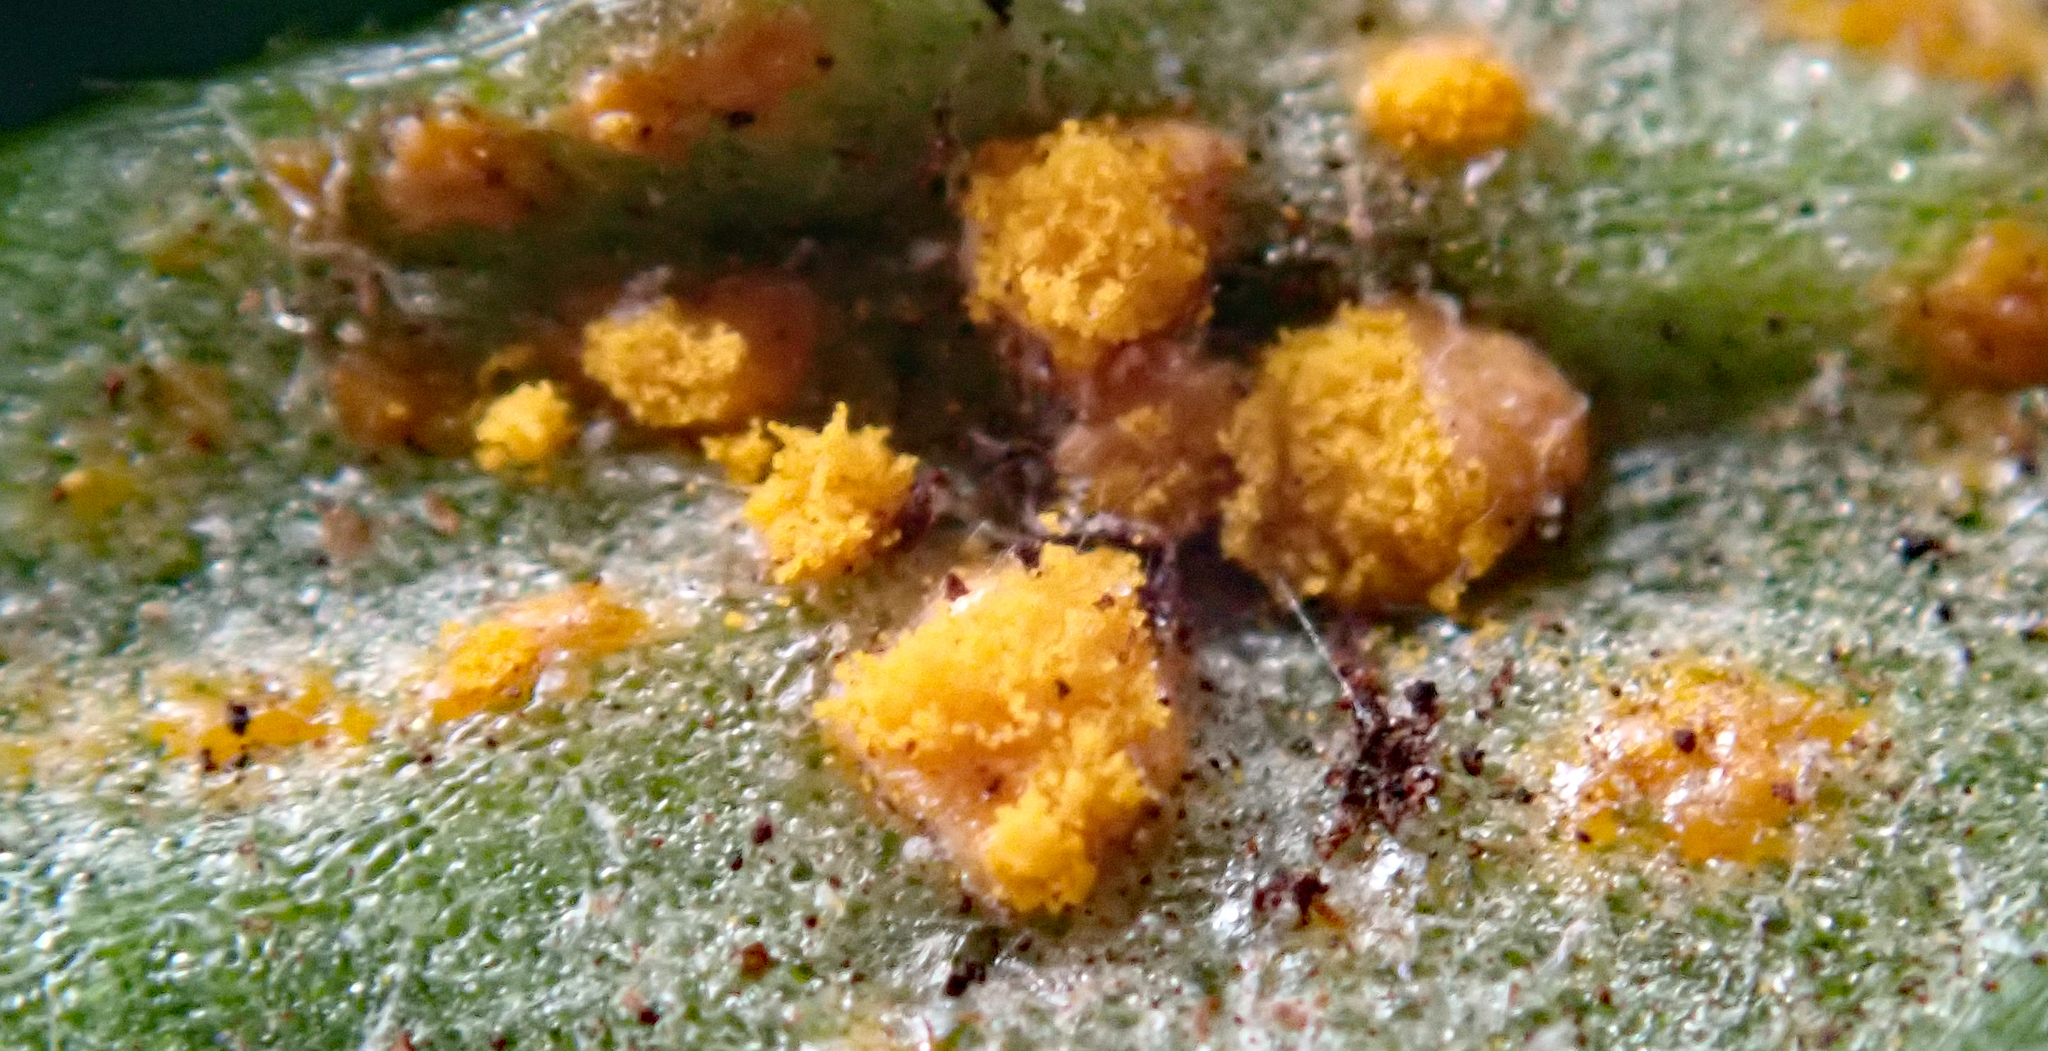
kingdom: Fungi
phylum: Basidiomycota
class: Pucciniomycetes
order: Pucciniales
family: Coleosporiaceae
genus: Coleosporium
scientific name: Coleosporium tussilaginis
